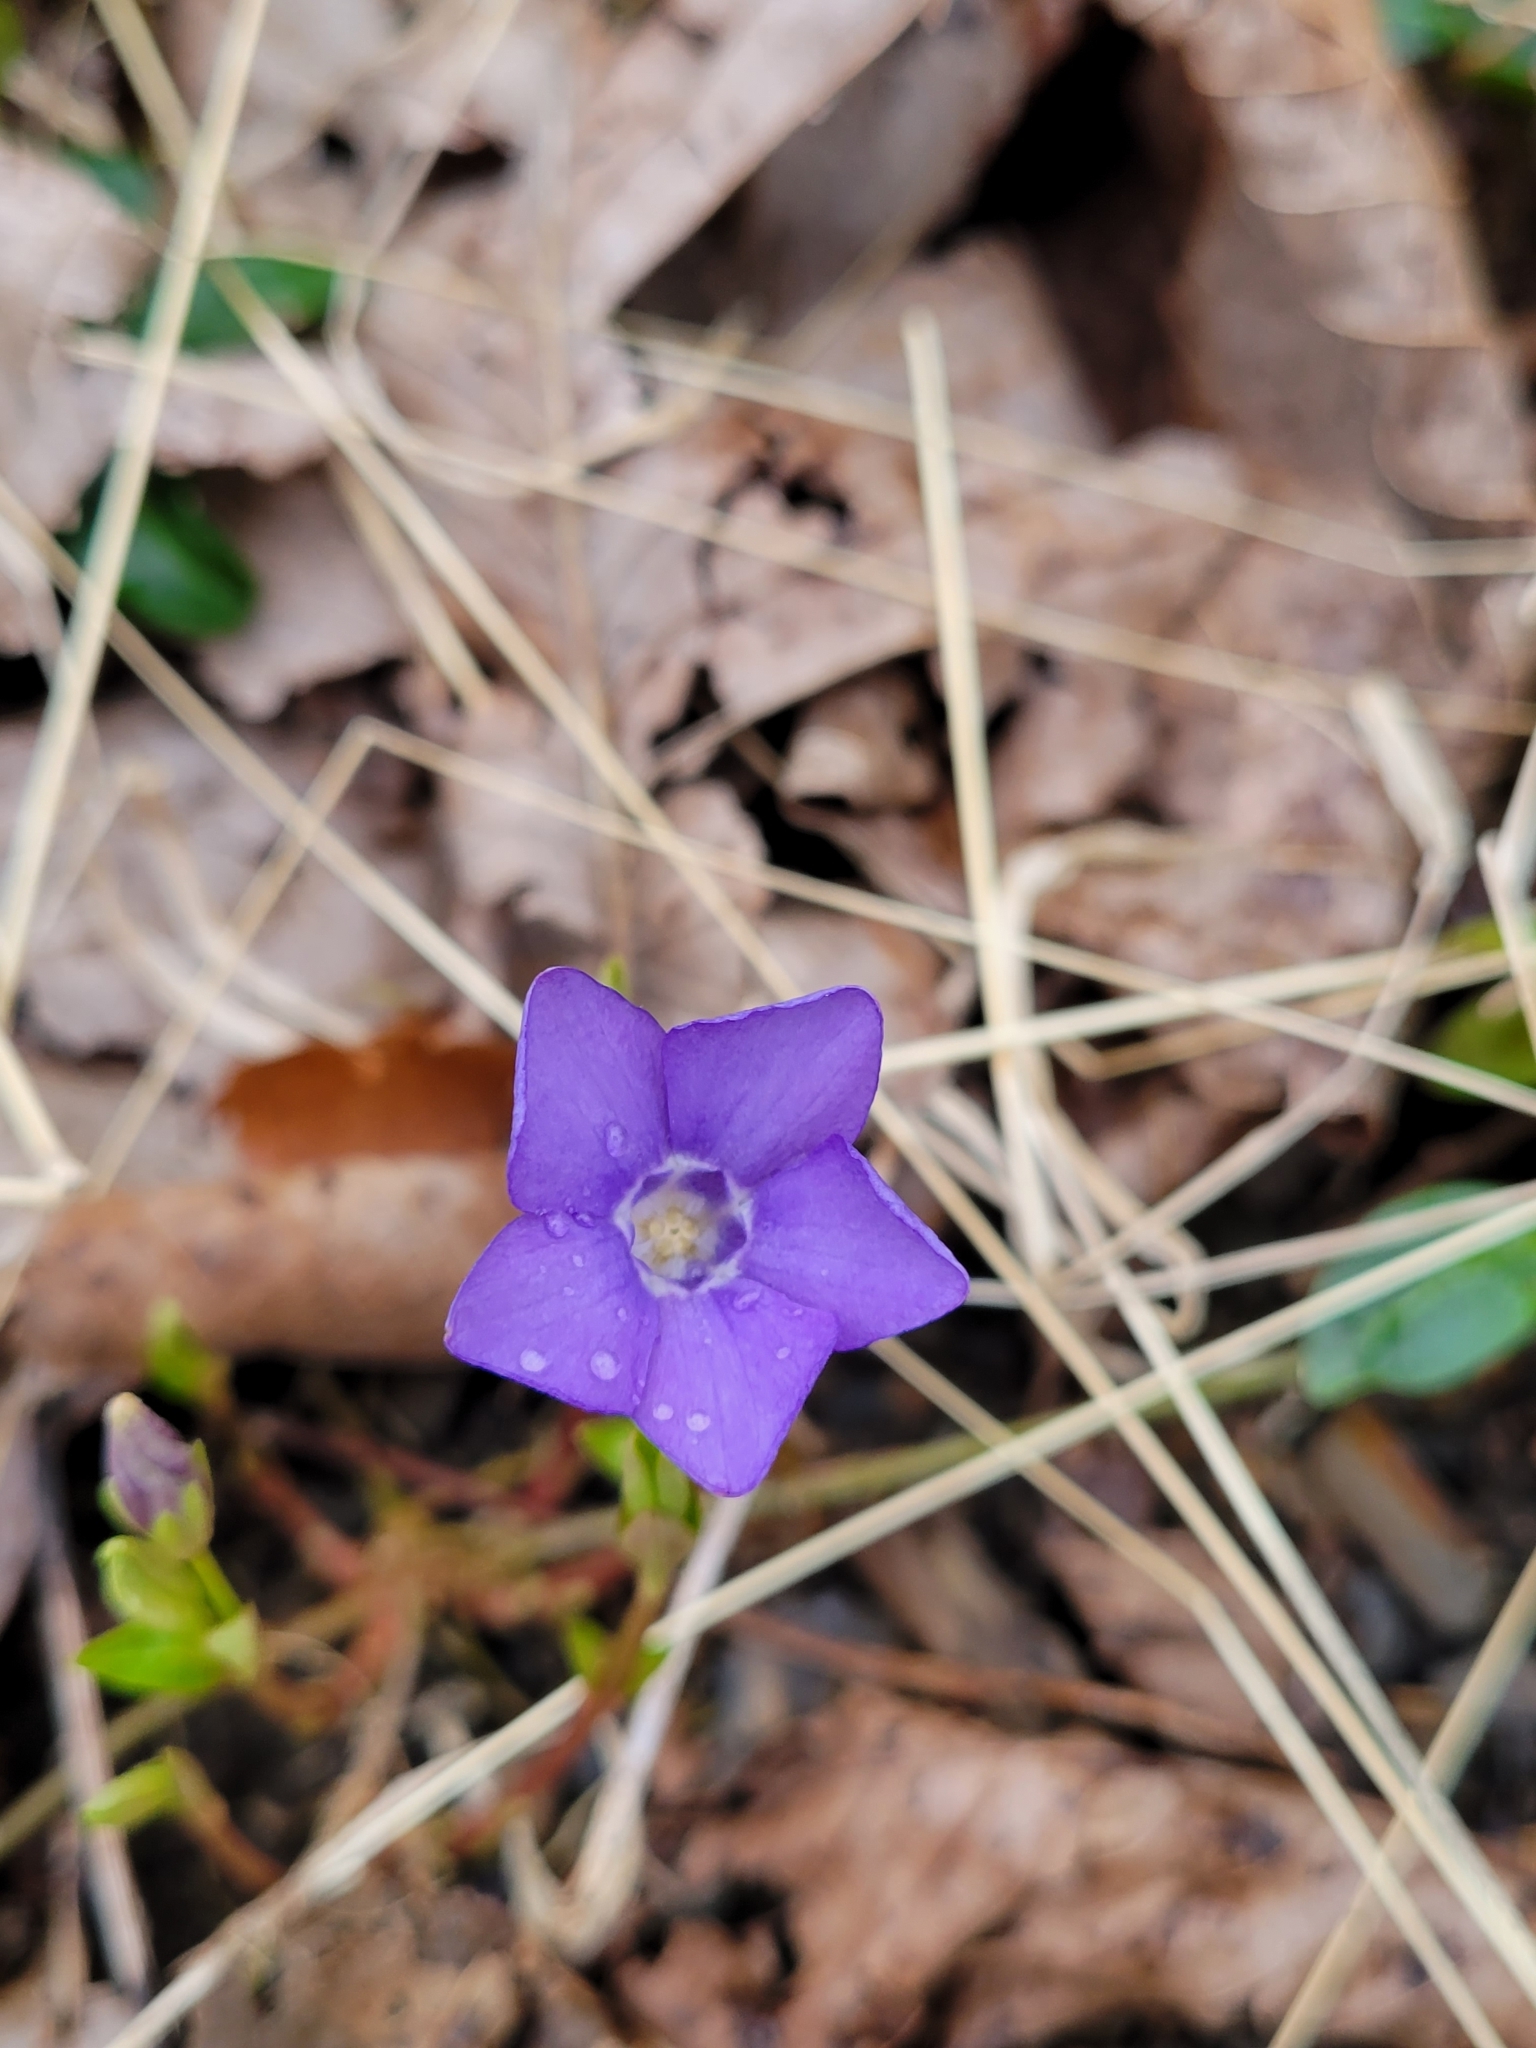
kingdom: Plantae
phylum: Tracheophyta
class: Magnoliopsida
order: Gentianales
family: Apocynaceae
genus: Vinca
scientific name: Vinca minor
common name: Lesser periwinkle
